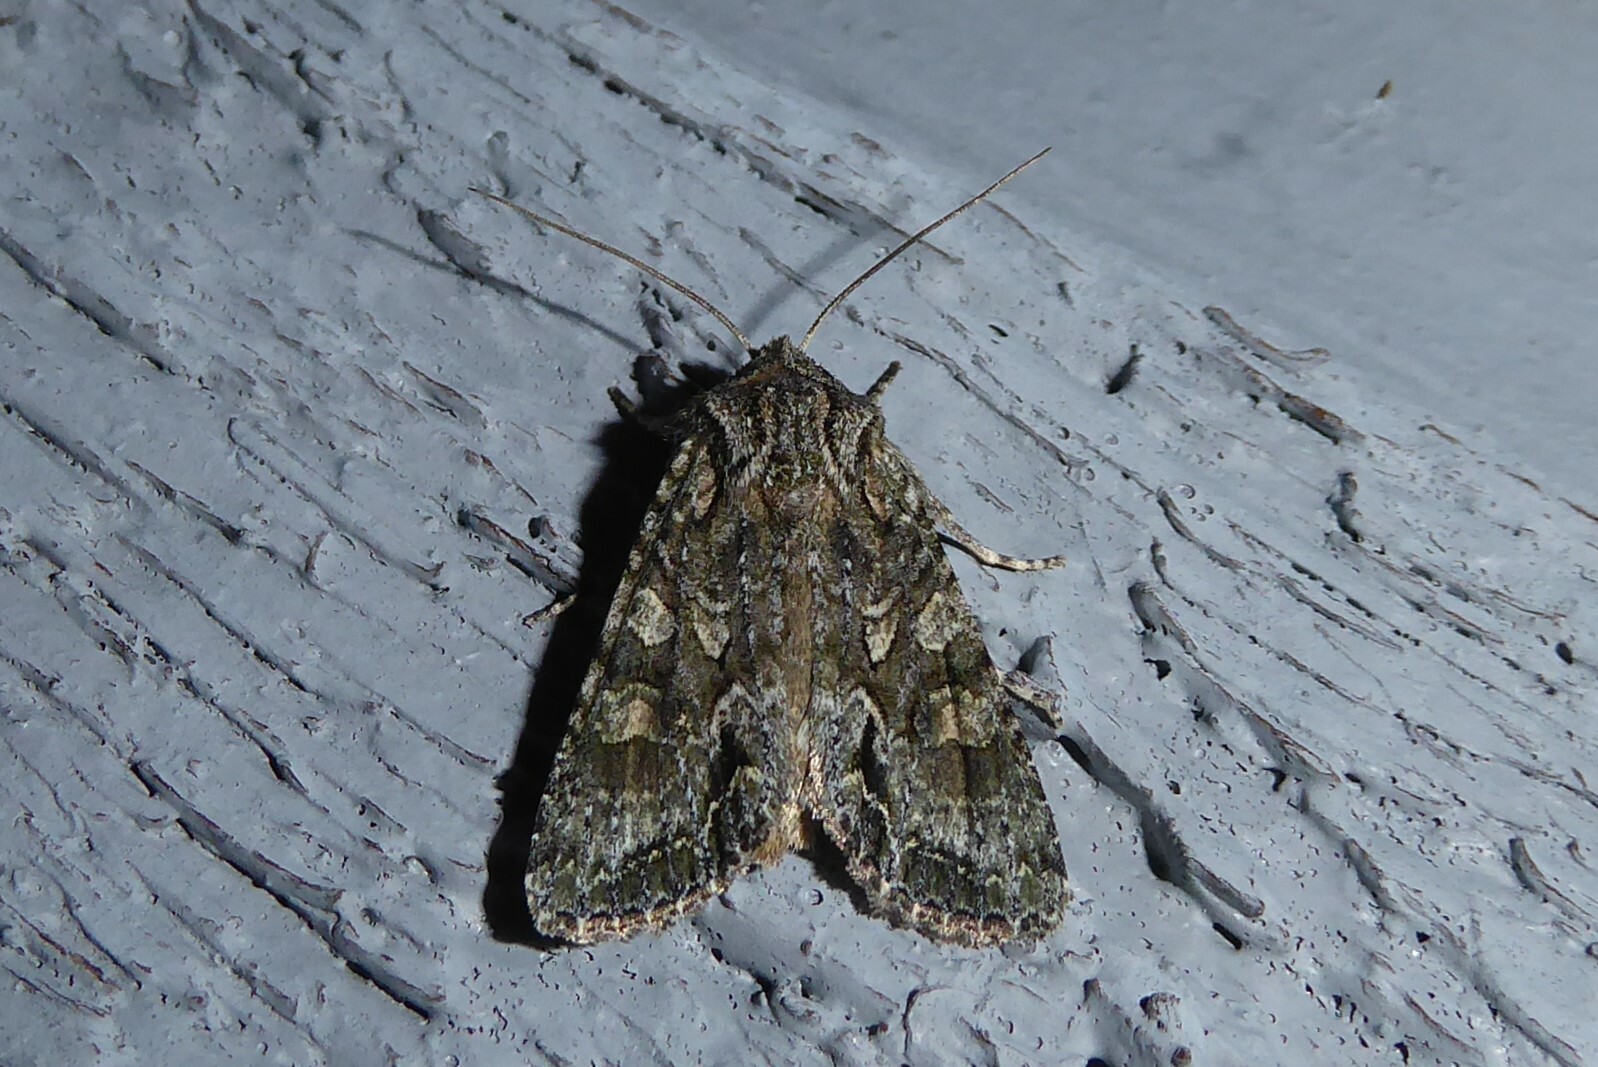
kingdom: Animalia
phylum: Arthropoda
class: Insecta
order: Lepidoptera
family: Noctuidae
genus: Ichneutica
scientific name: Ichneutica mutans
